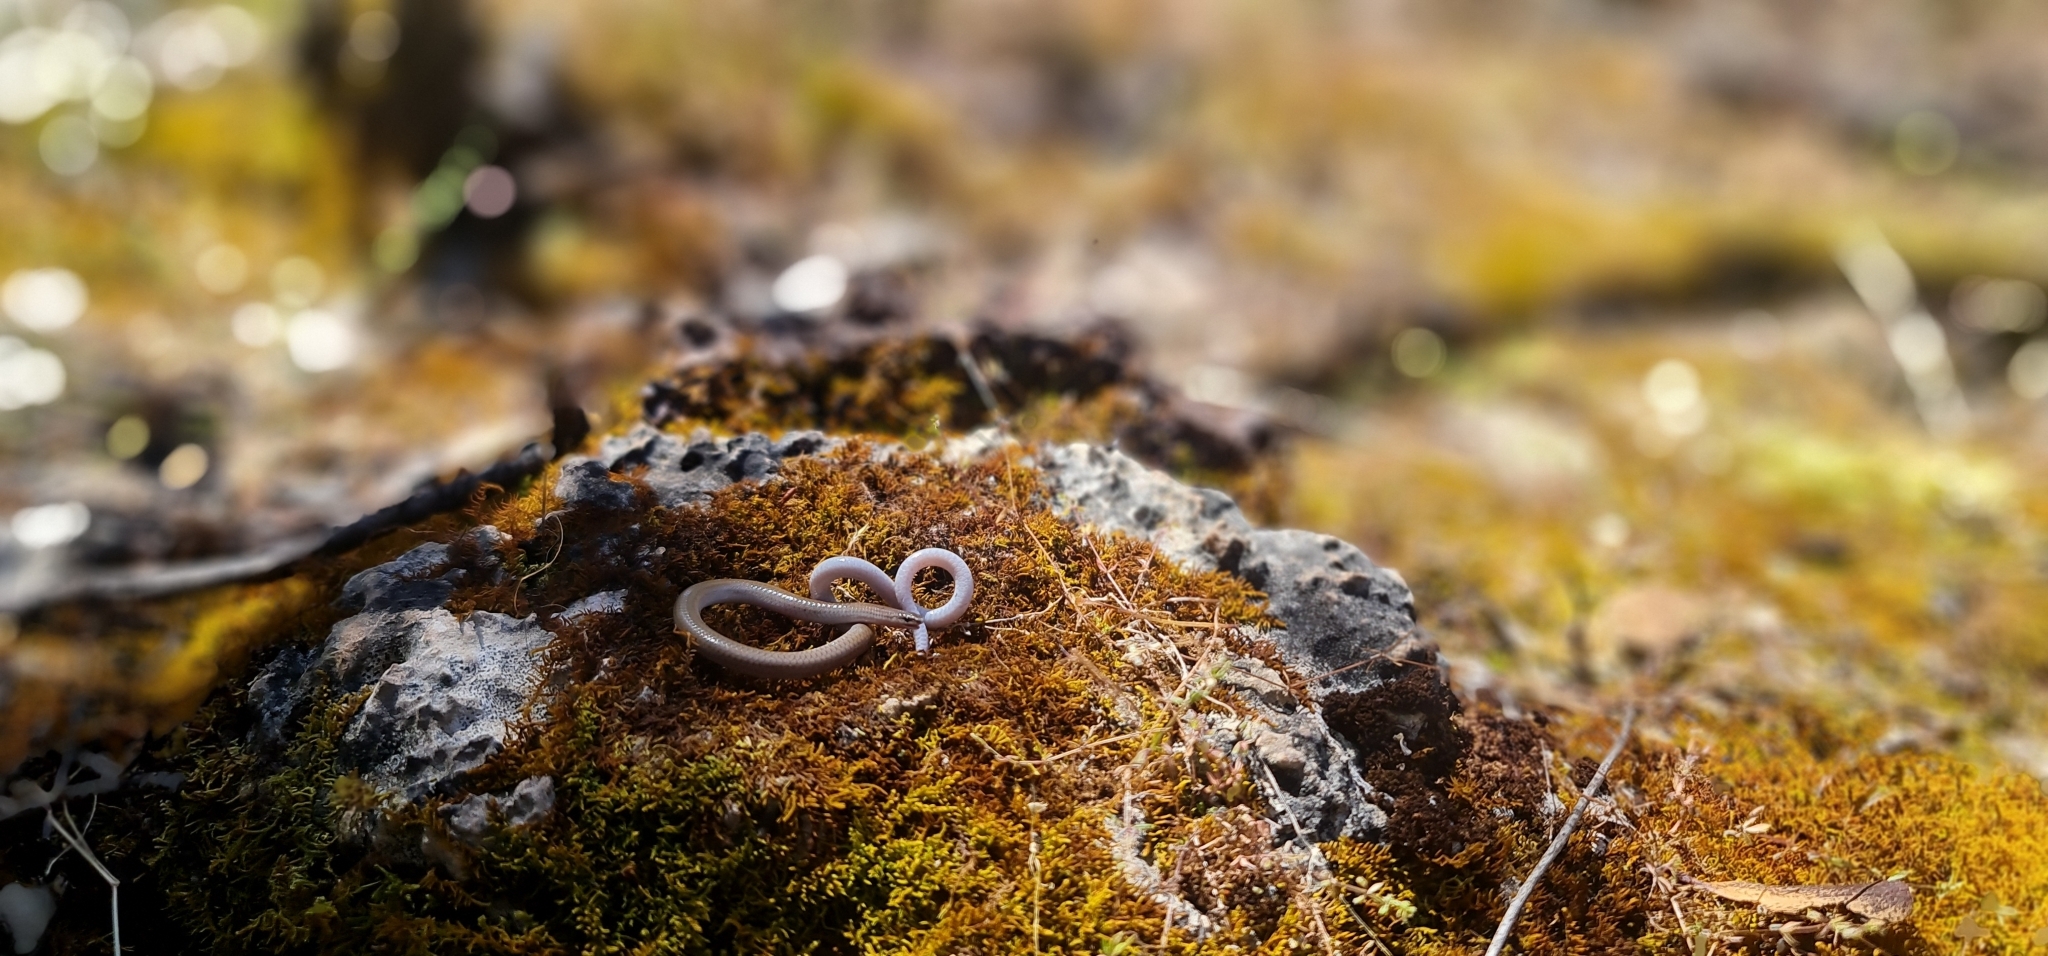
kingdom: Animalia
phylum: Chordata
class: Squamata
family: Pygopodidae
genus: Aprasia
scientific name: Aprasia striolata
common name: Striated worm-lizard
